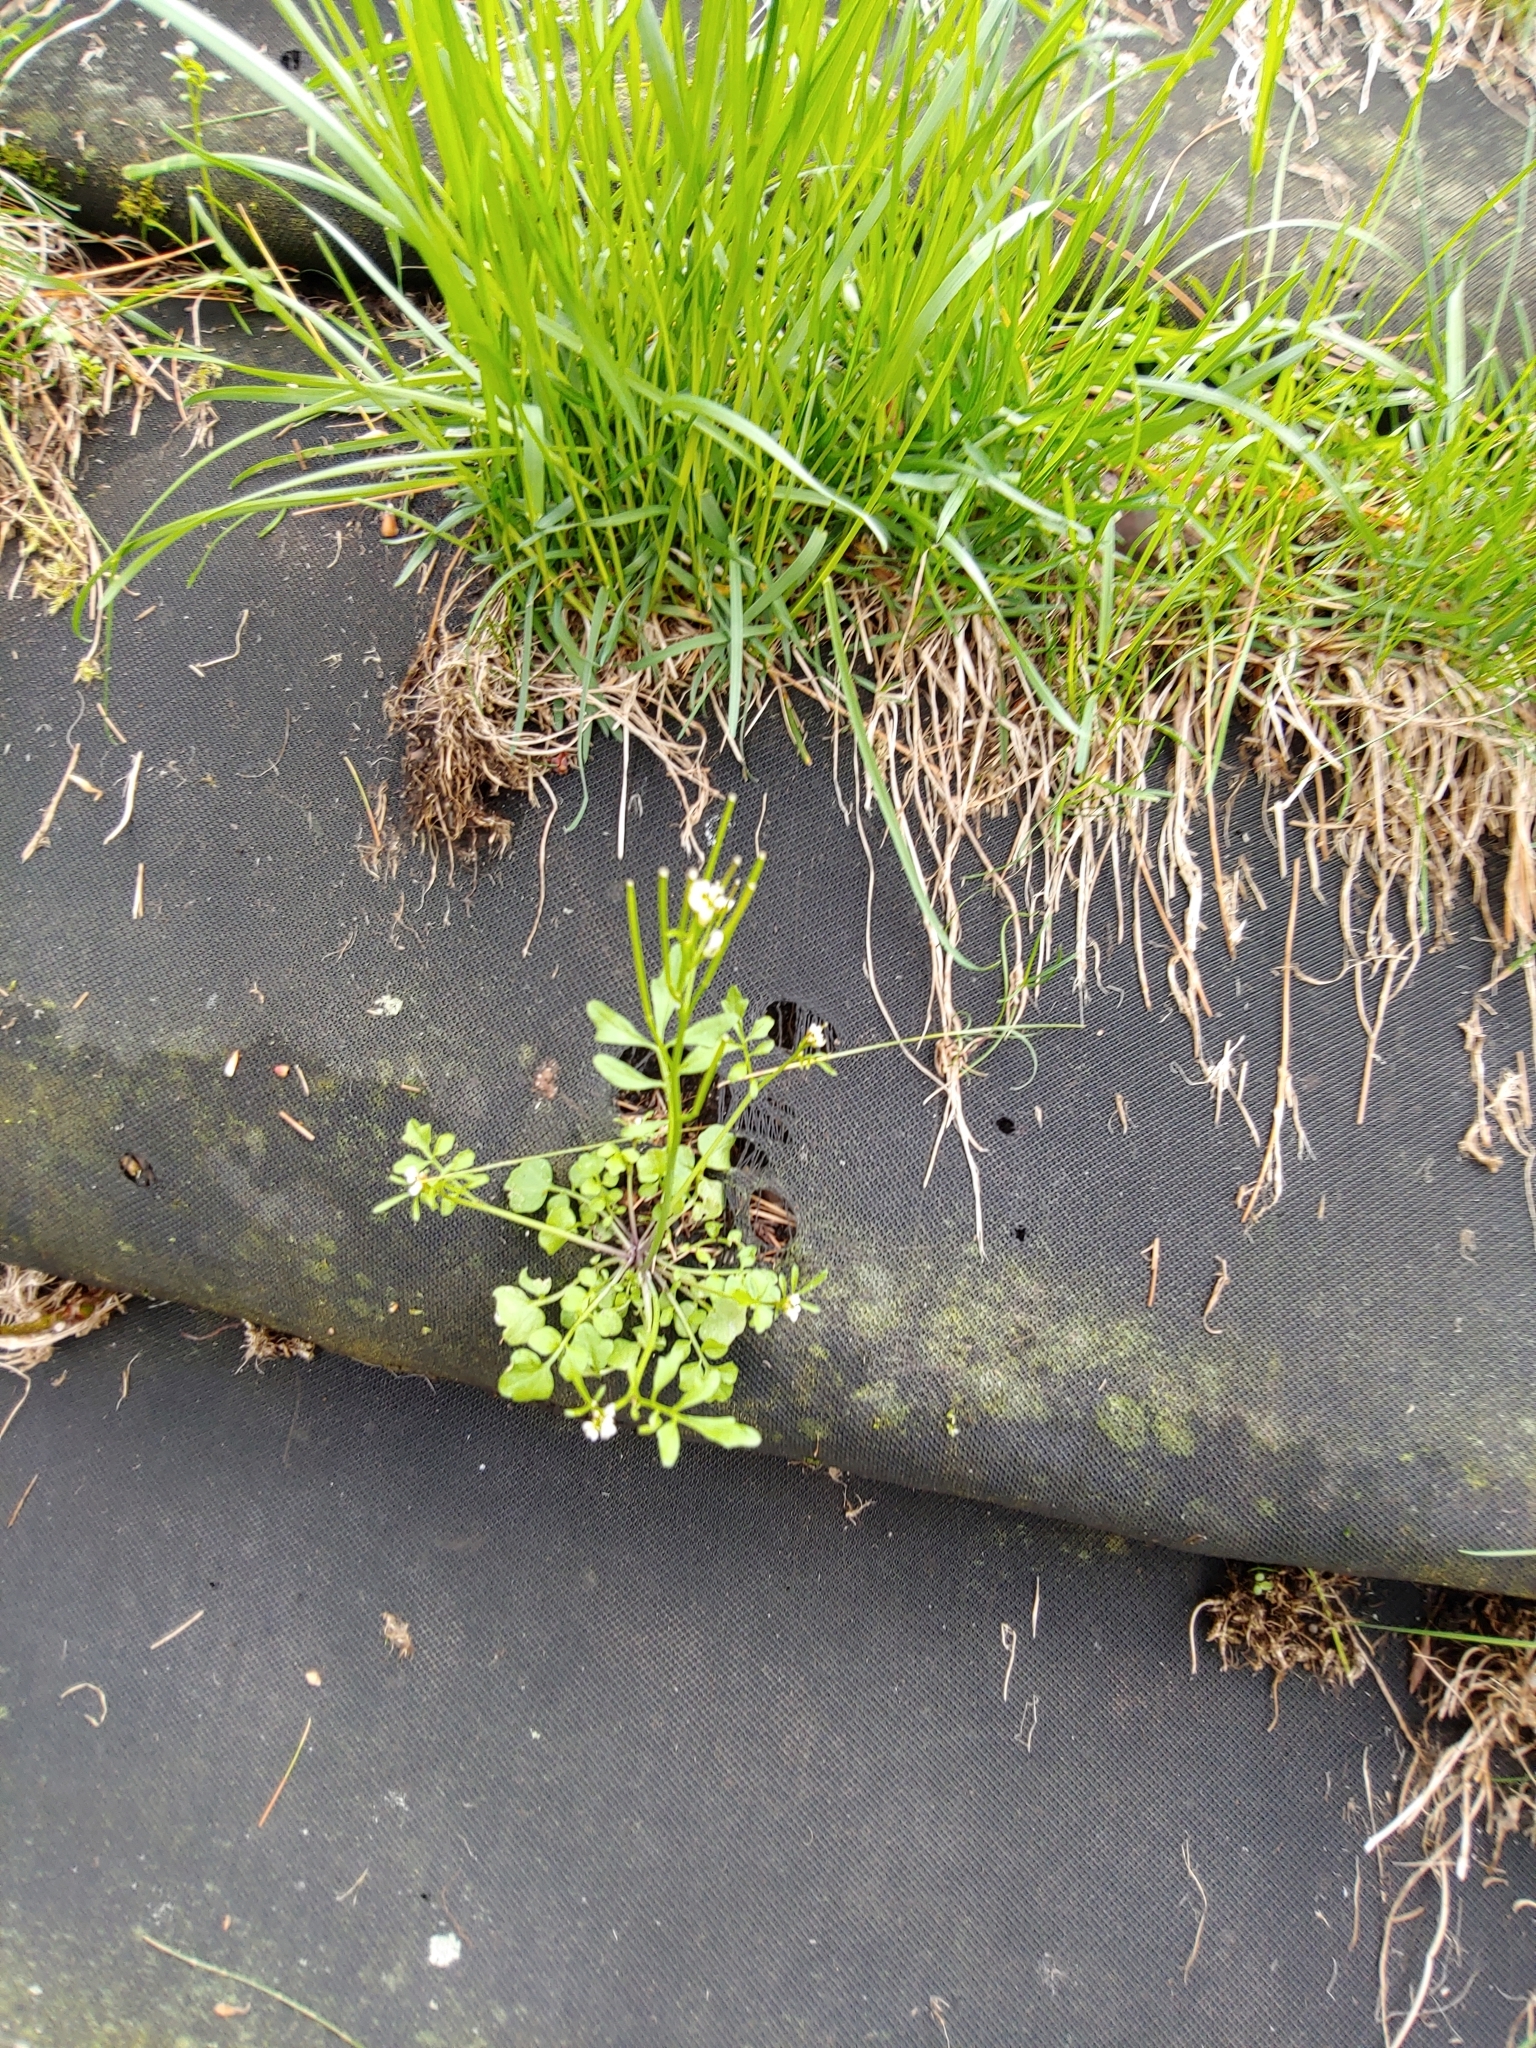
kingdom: Plantae
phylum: Tracheophyta
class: Magnoliopsida
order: Brassicales
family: Brassicaceae
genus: Cardamine
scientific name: Cardamine hirsuta
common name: Hairy bittercress
